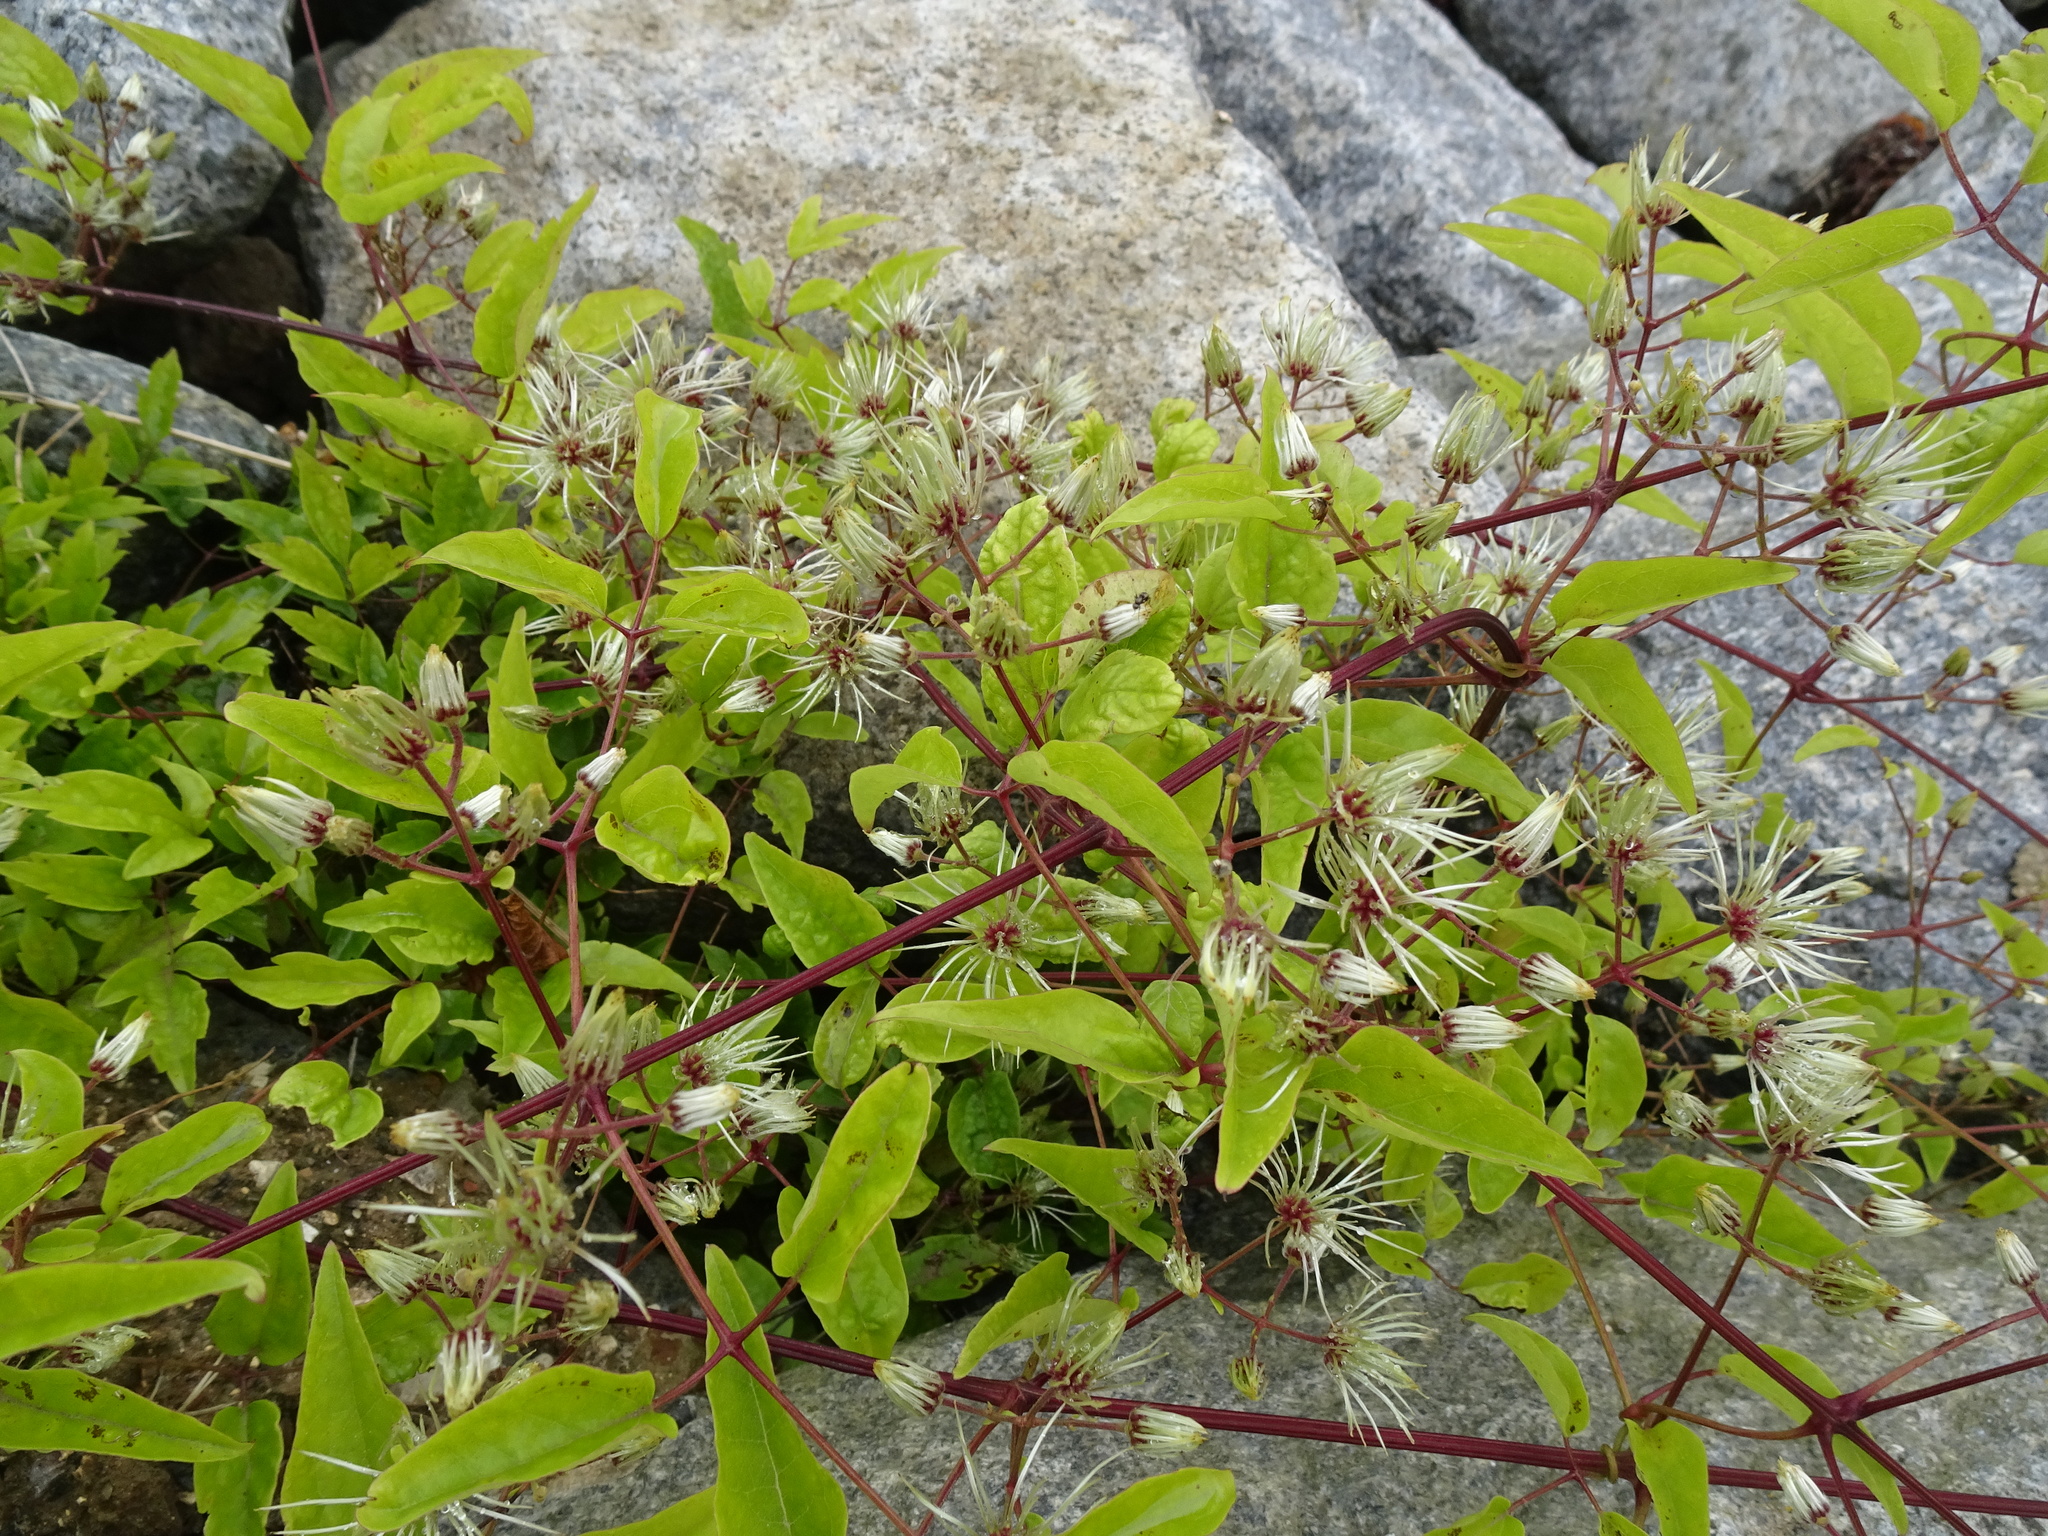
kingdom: Plantae
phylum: Tracheophyta
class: Magnoliopsida
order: Ranunculales
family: Ranunculaceae
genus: Clematis
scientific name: Clematis vitalba
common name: Evergreen clematis
